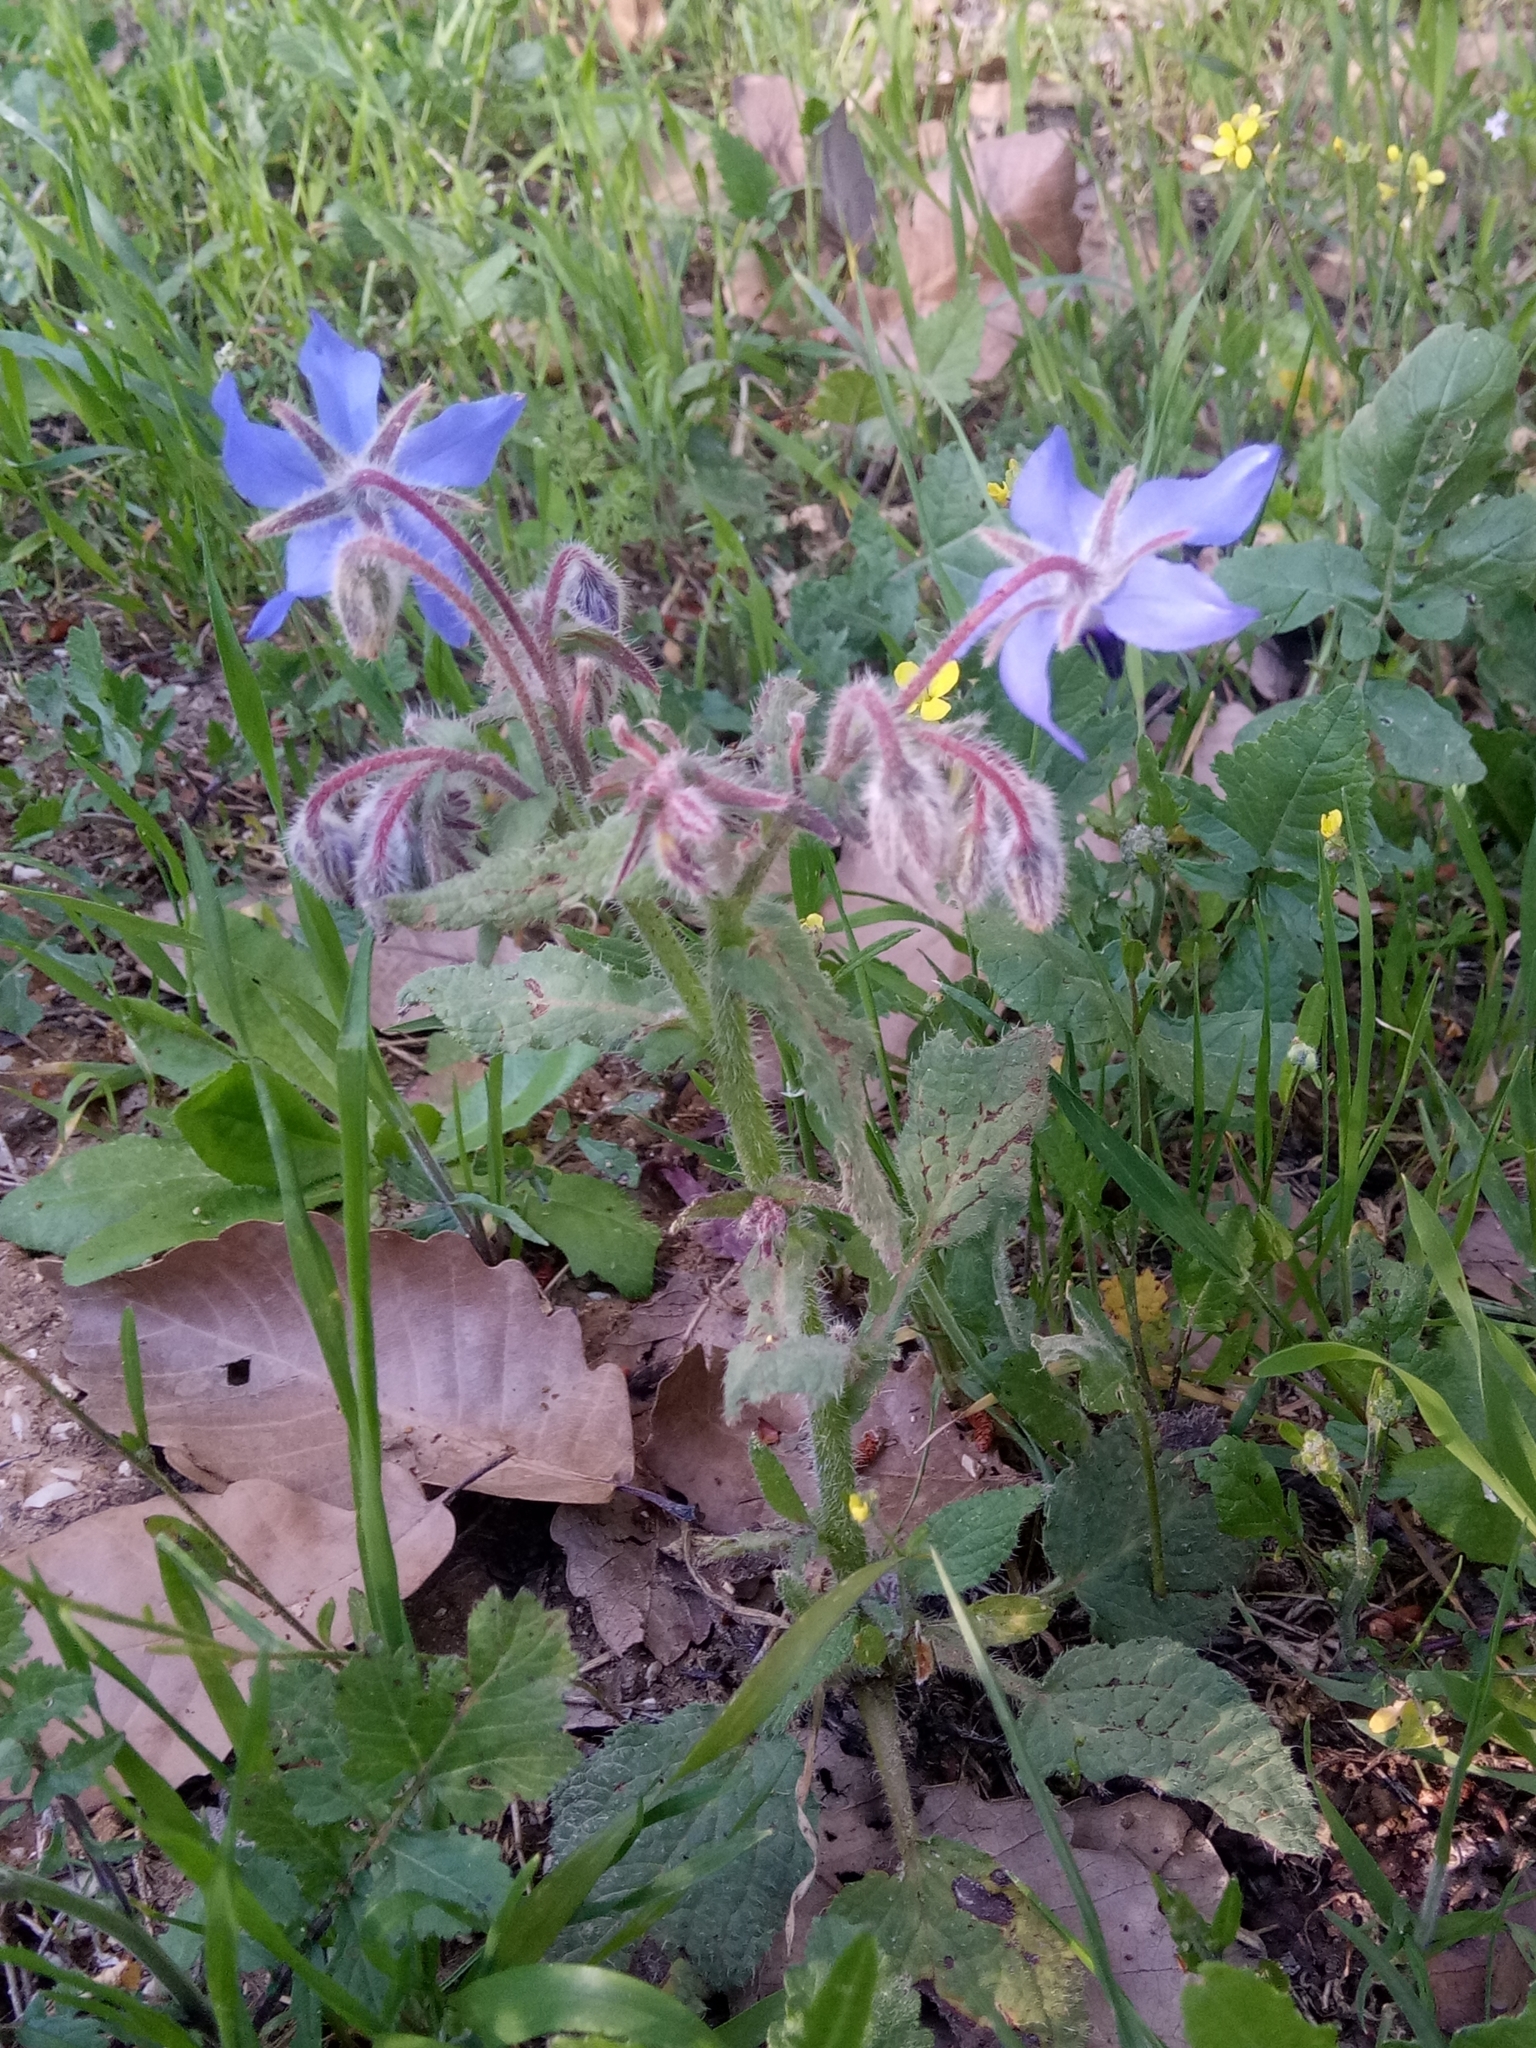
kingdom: Plantae
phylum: Tracheophyta
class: Magnoliopsida
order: Boraginales
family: Boraginaceae
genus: Borago
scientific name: Borago officinalis
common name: Borage
